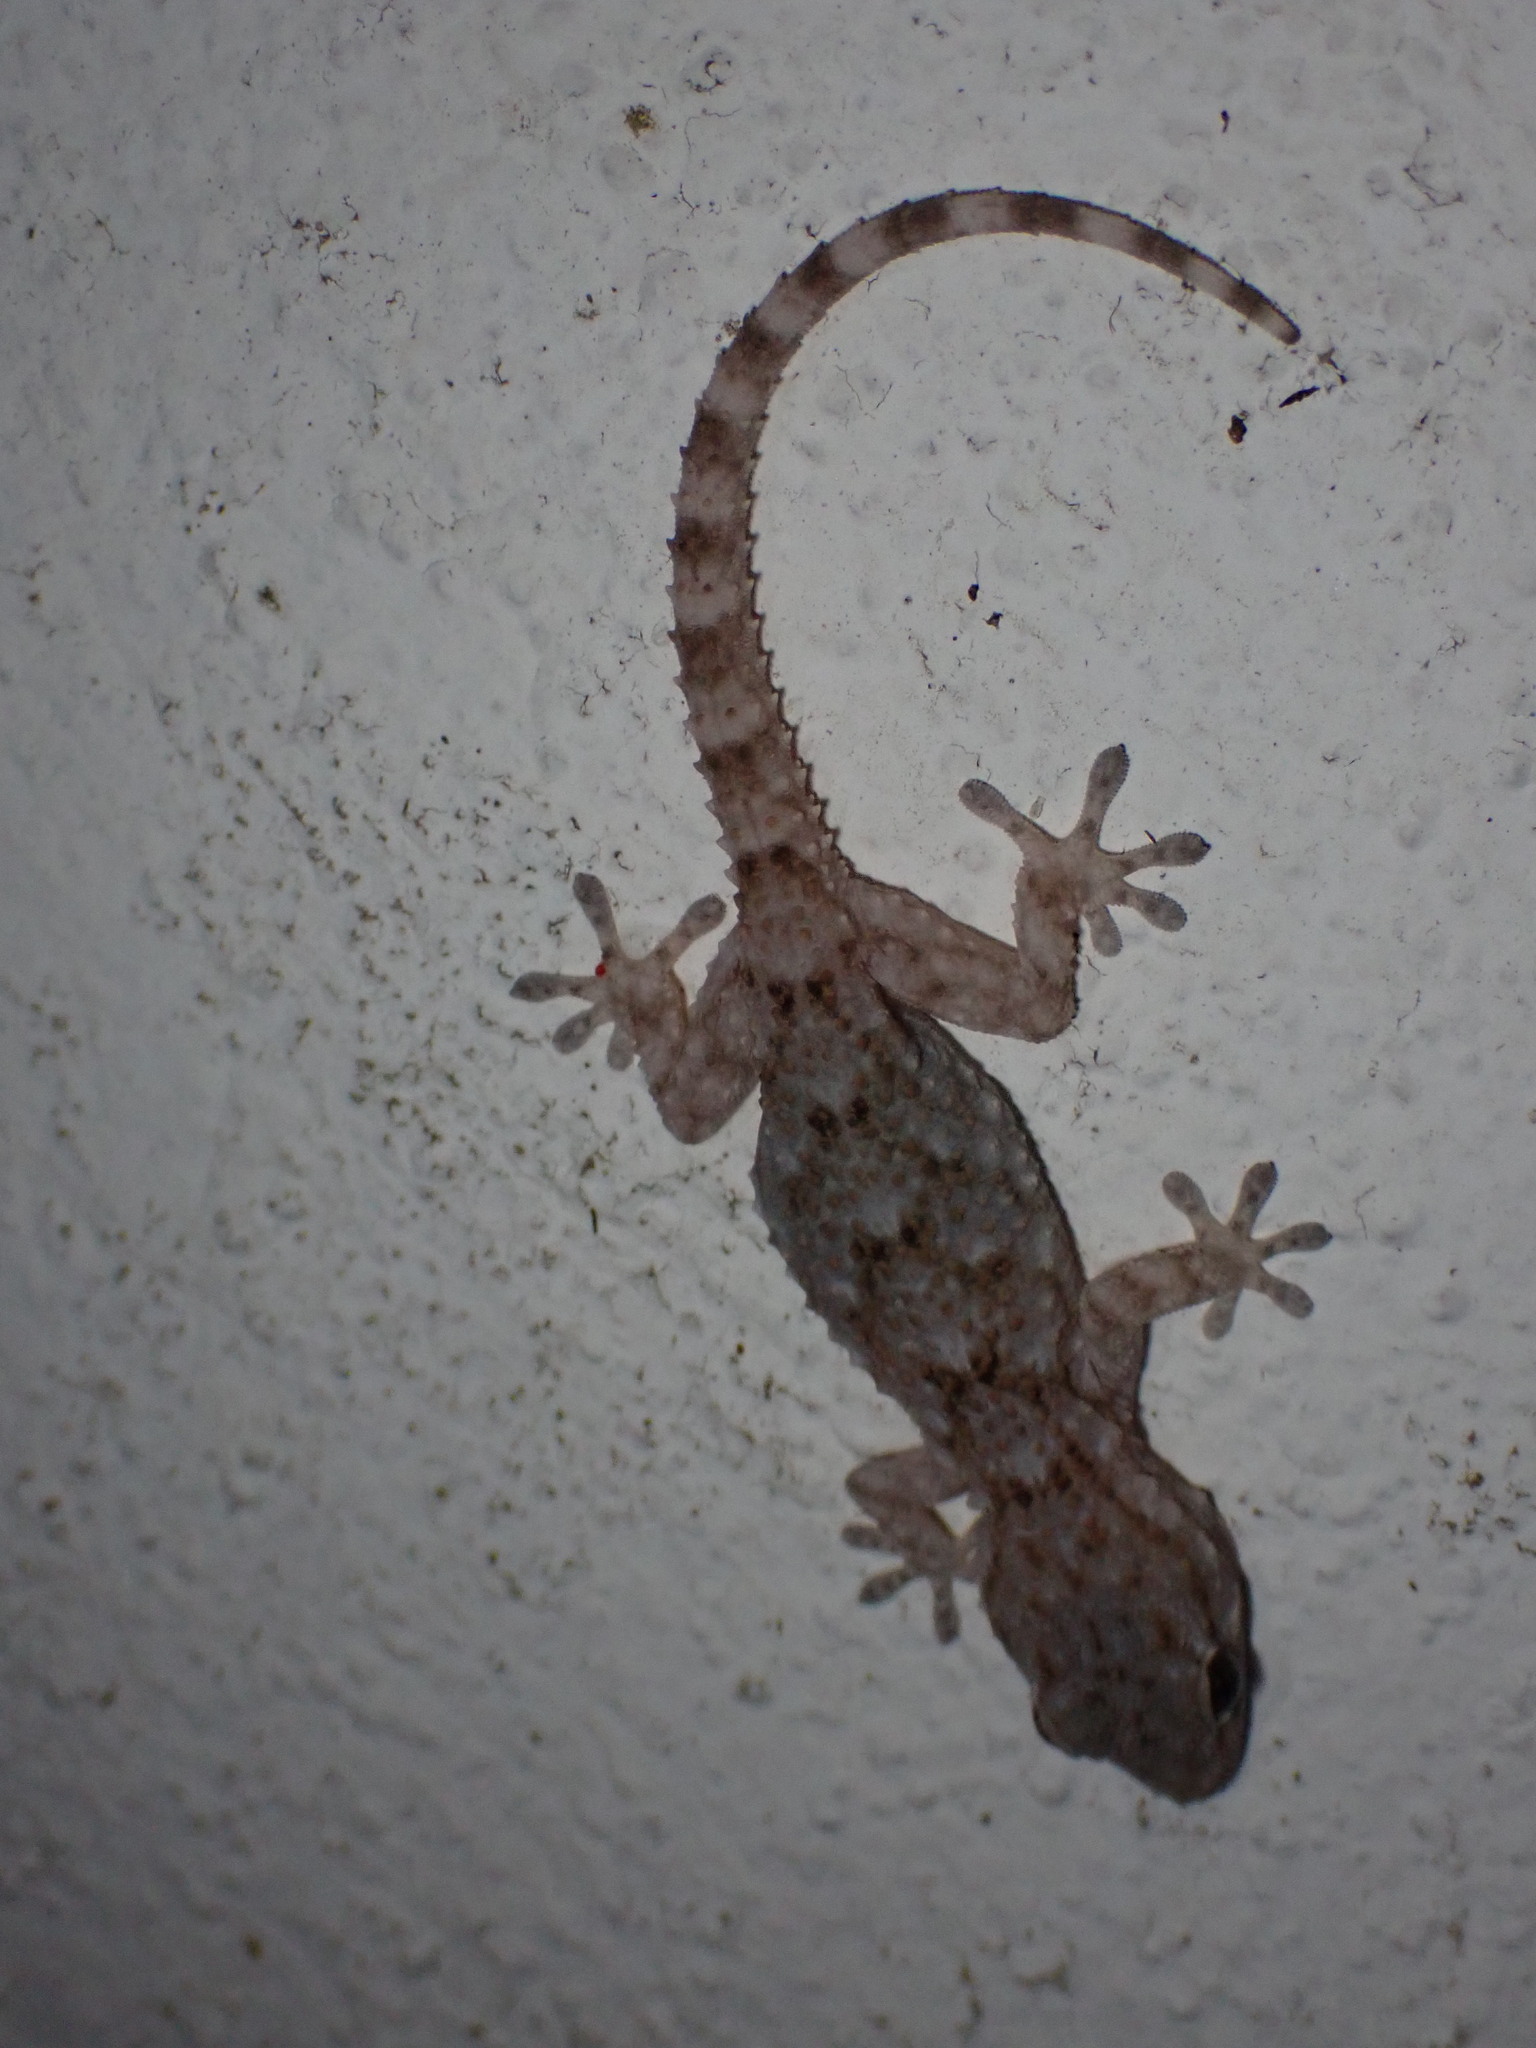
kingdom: Animalia
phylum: Chordata
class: Squamata
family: Phyllodactylidae
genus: Tarentola
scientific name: Tarentola mauritanica
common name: Moorish gecko
